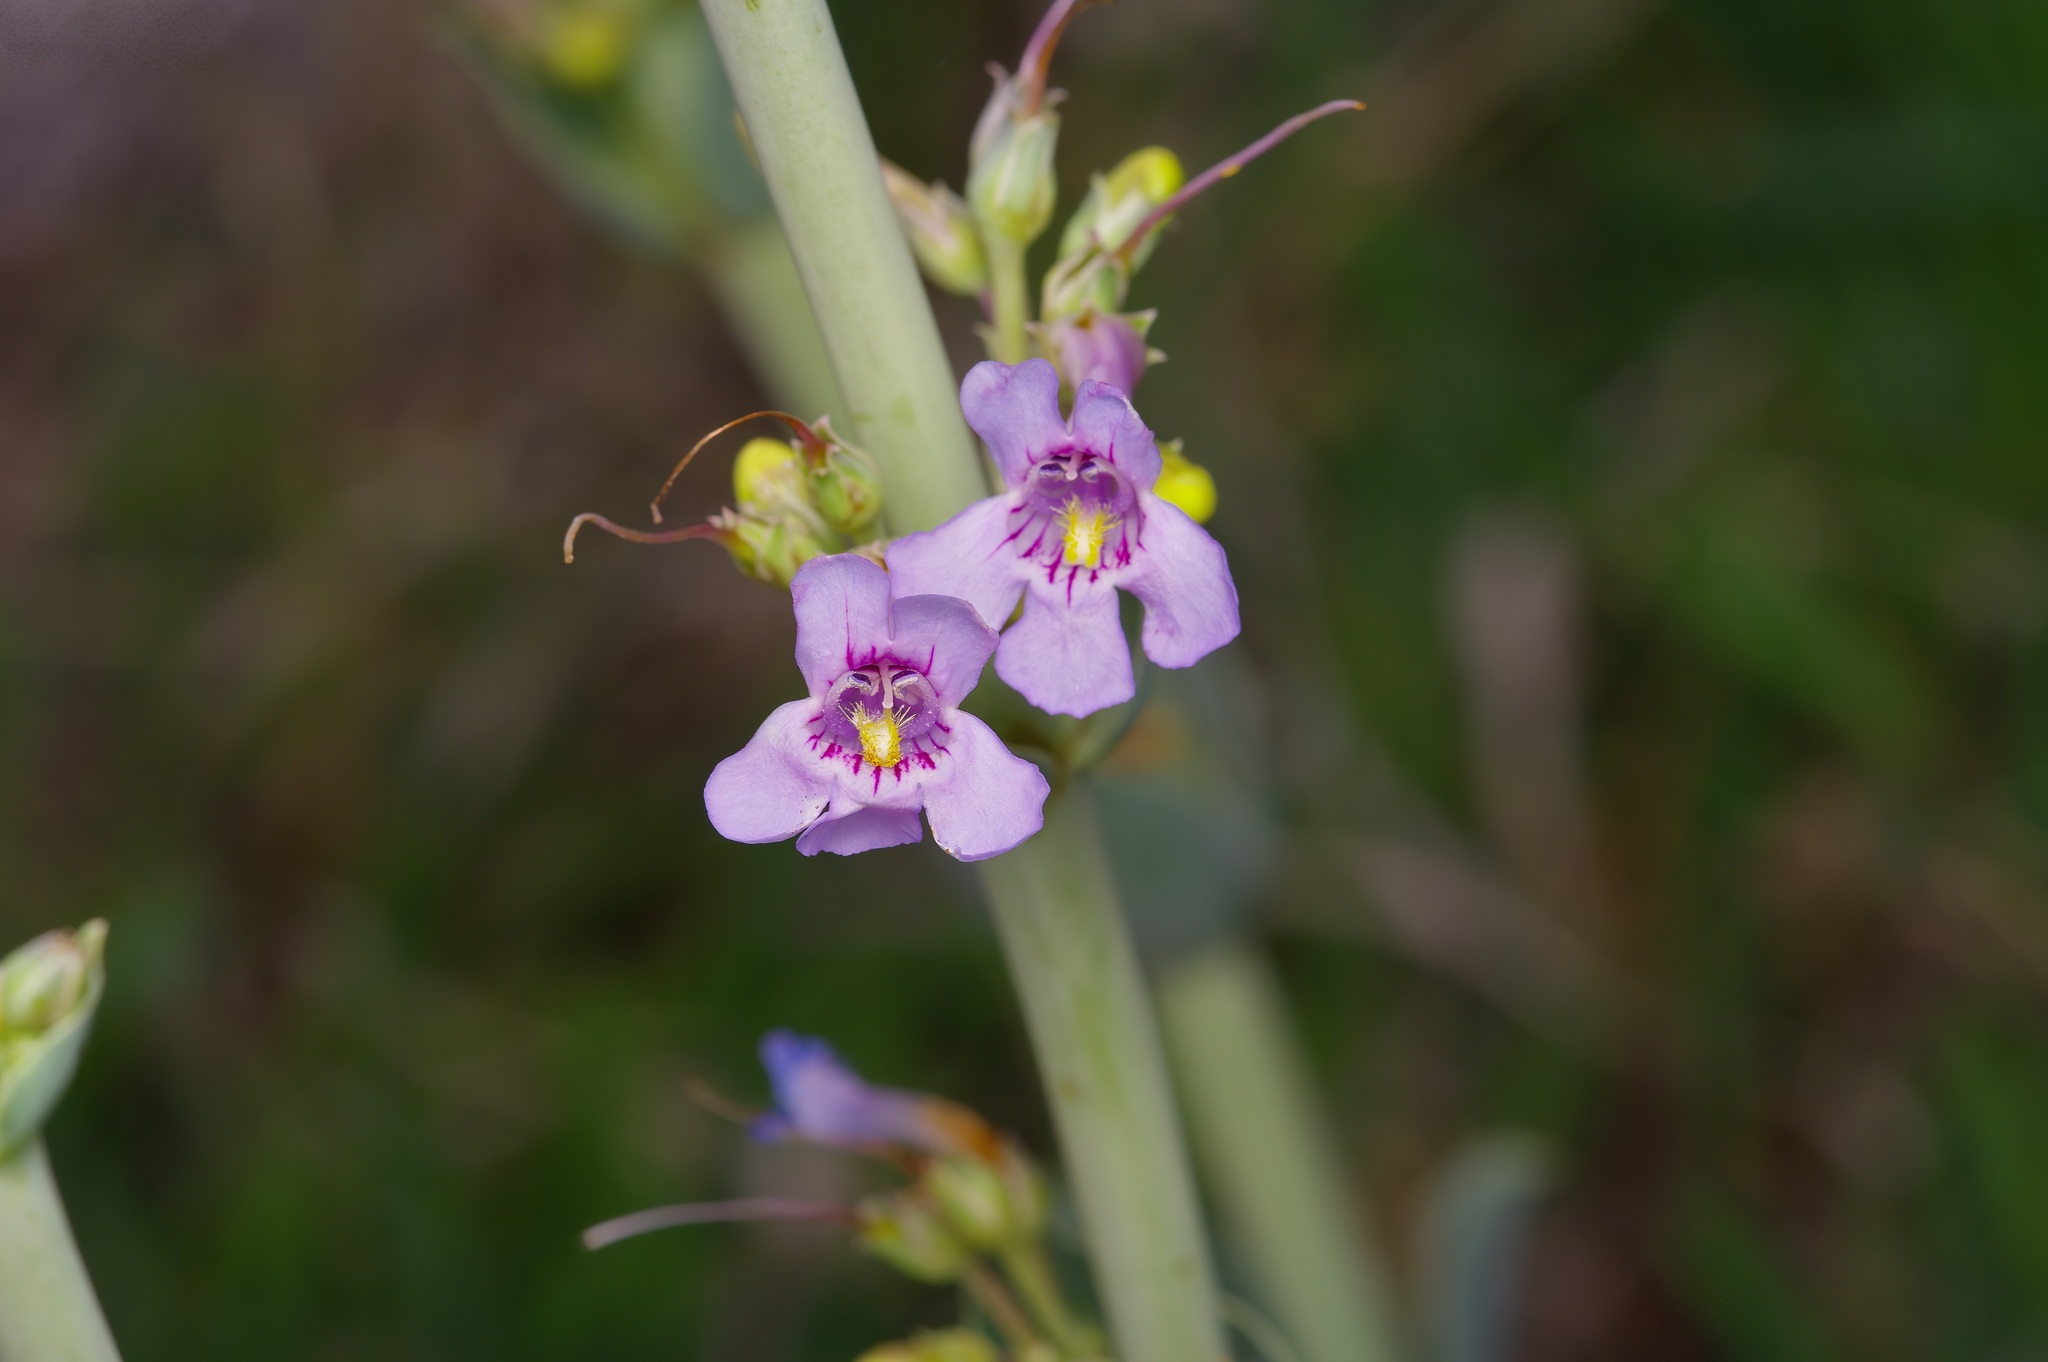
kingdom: Plantae
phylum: Tracheophyta
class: Magnoliopsida
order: Lamiales
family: Plantaginaceae
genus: Penstemon
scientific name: Penstemon fendleri
